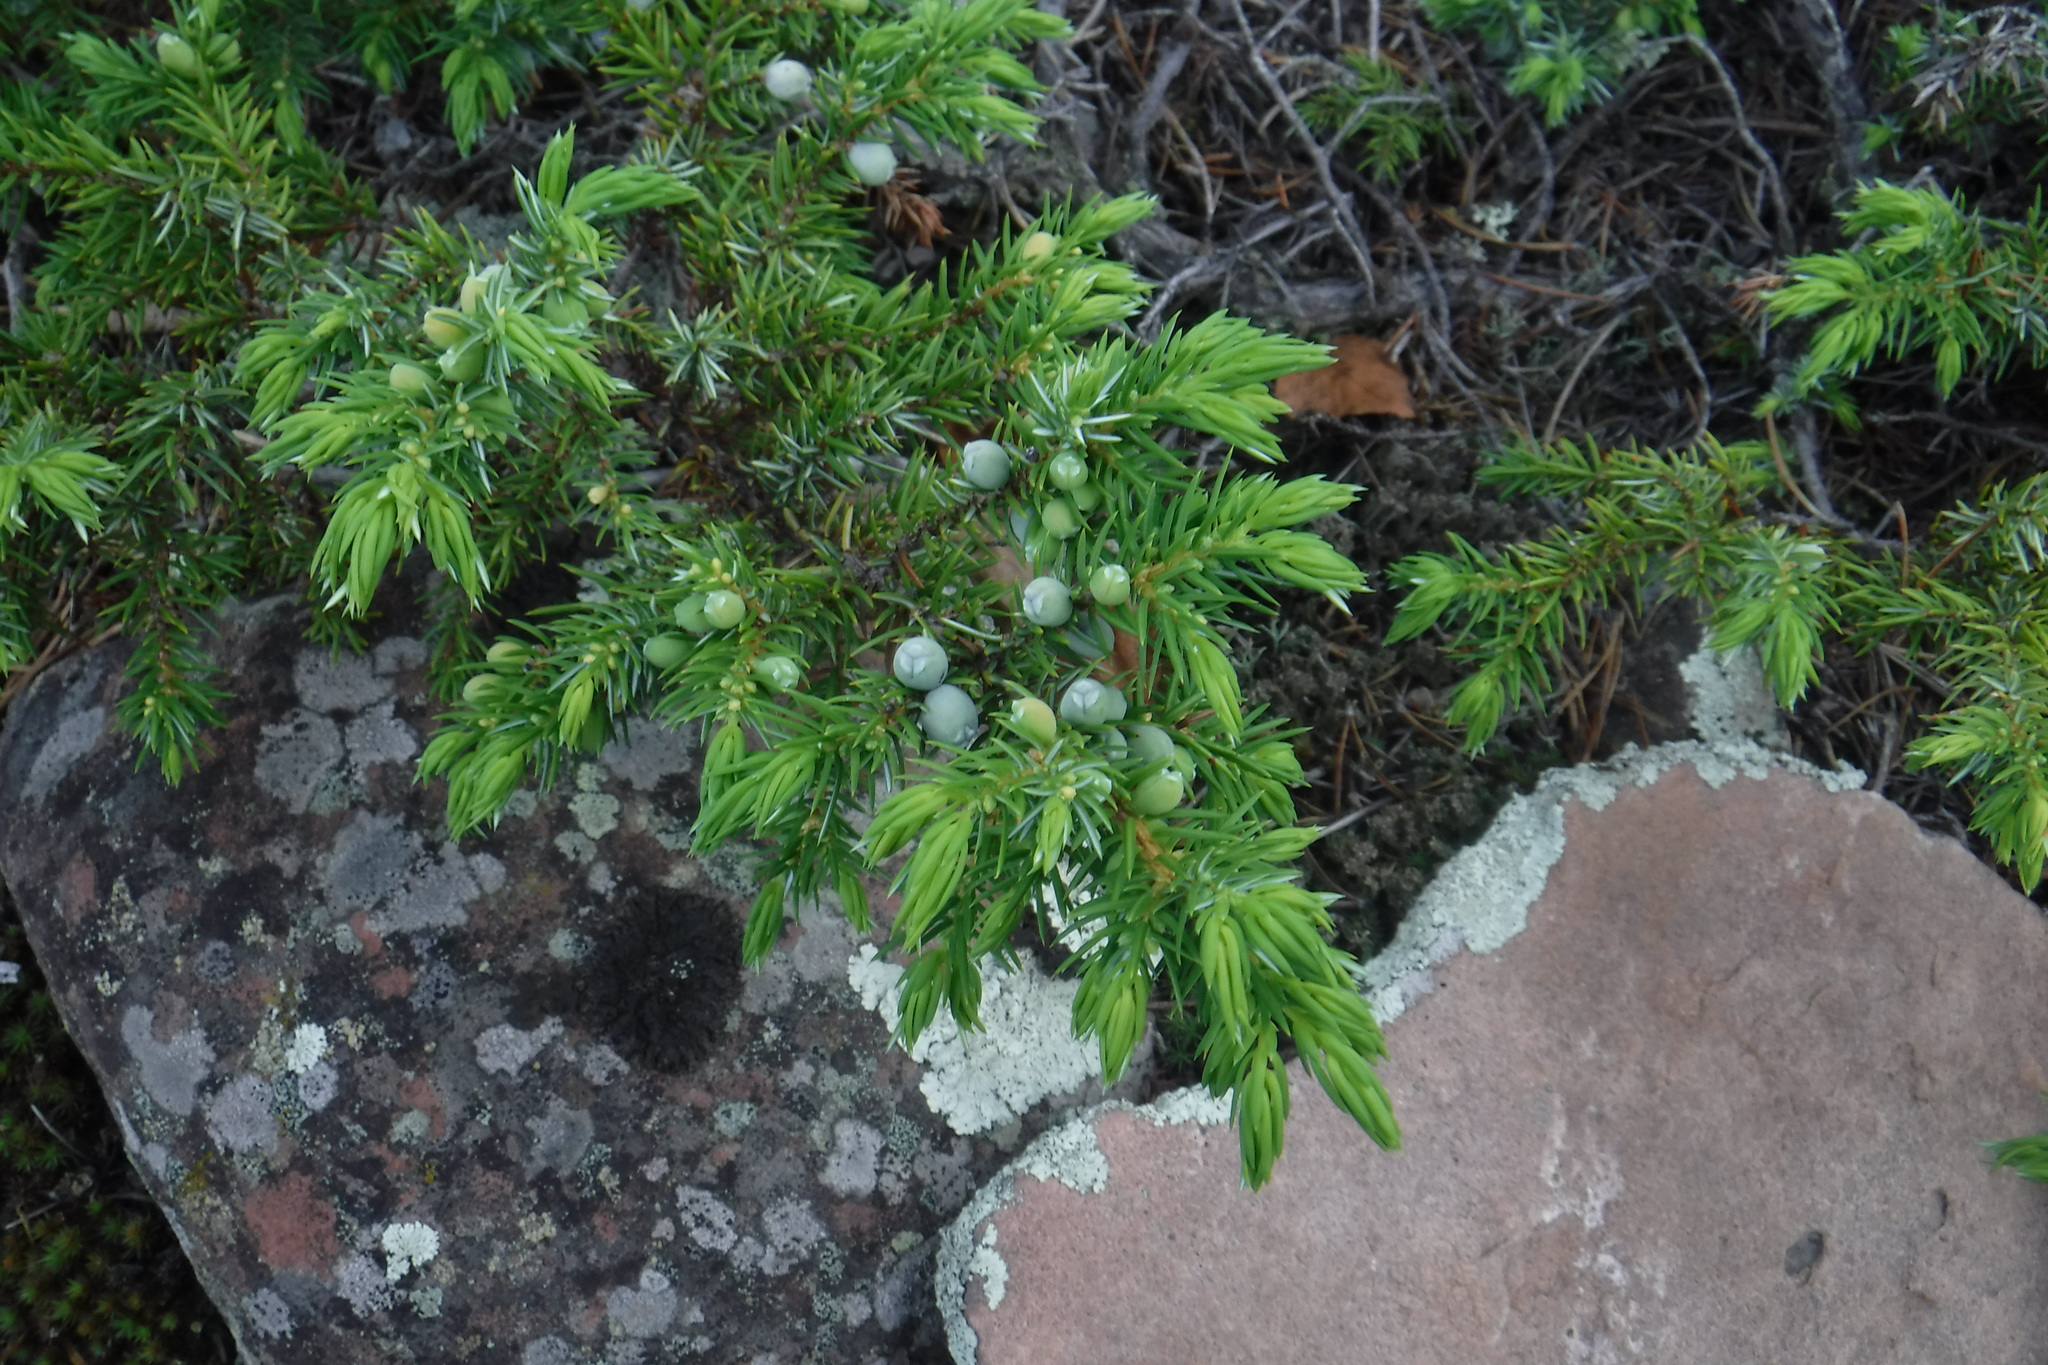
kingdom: Plantae
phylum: Tracheophyta
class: Pinopsida
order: Pinales
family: Cupressaceae
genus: Juniperus
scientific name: Juniperus communis
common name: Common juniper
